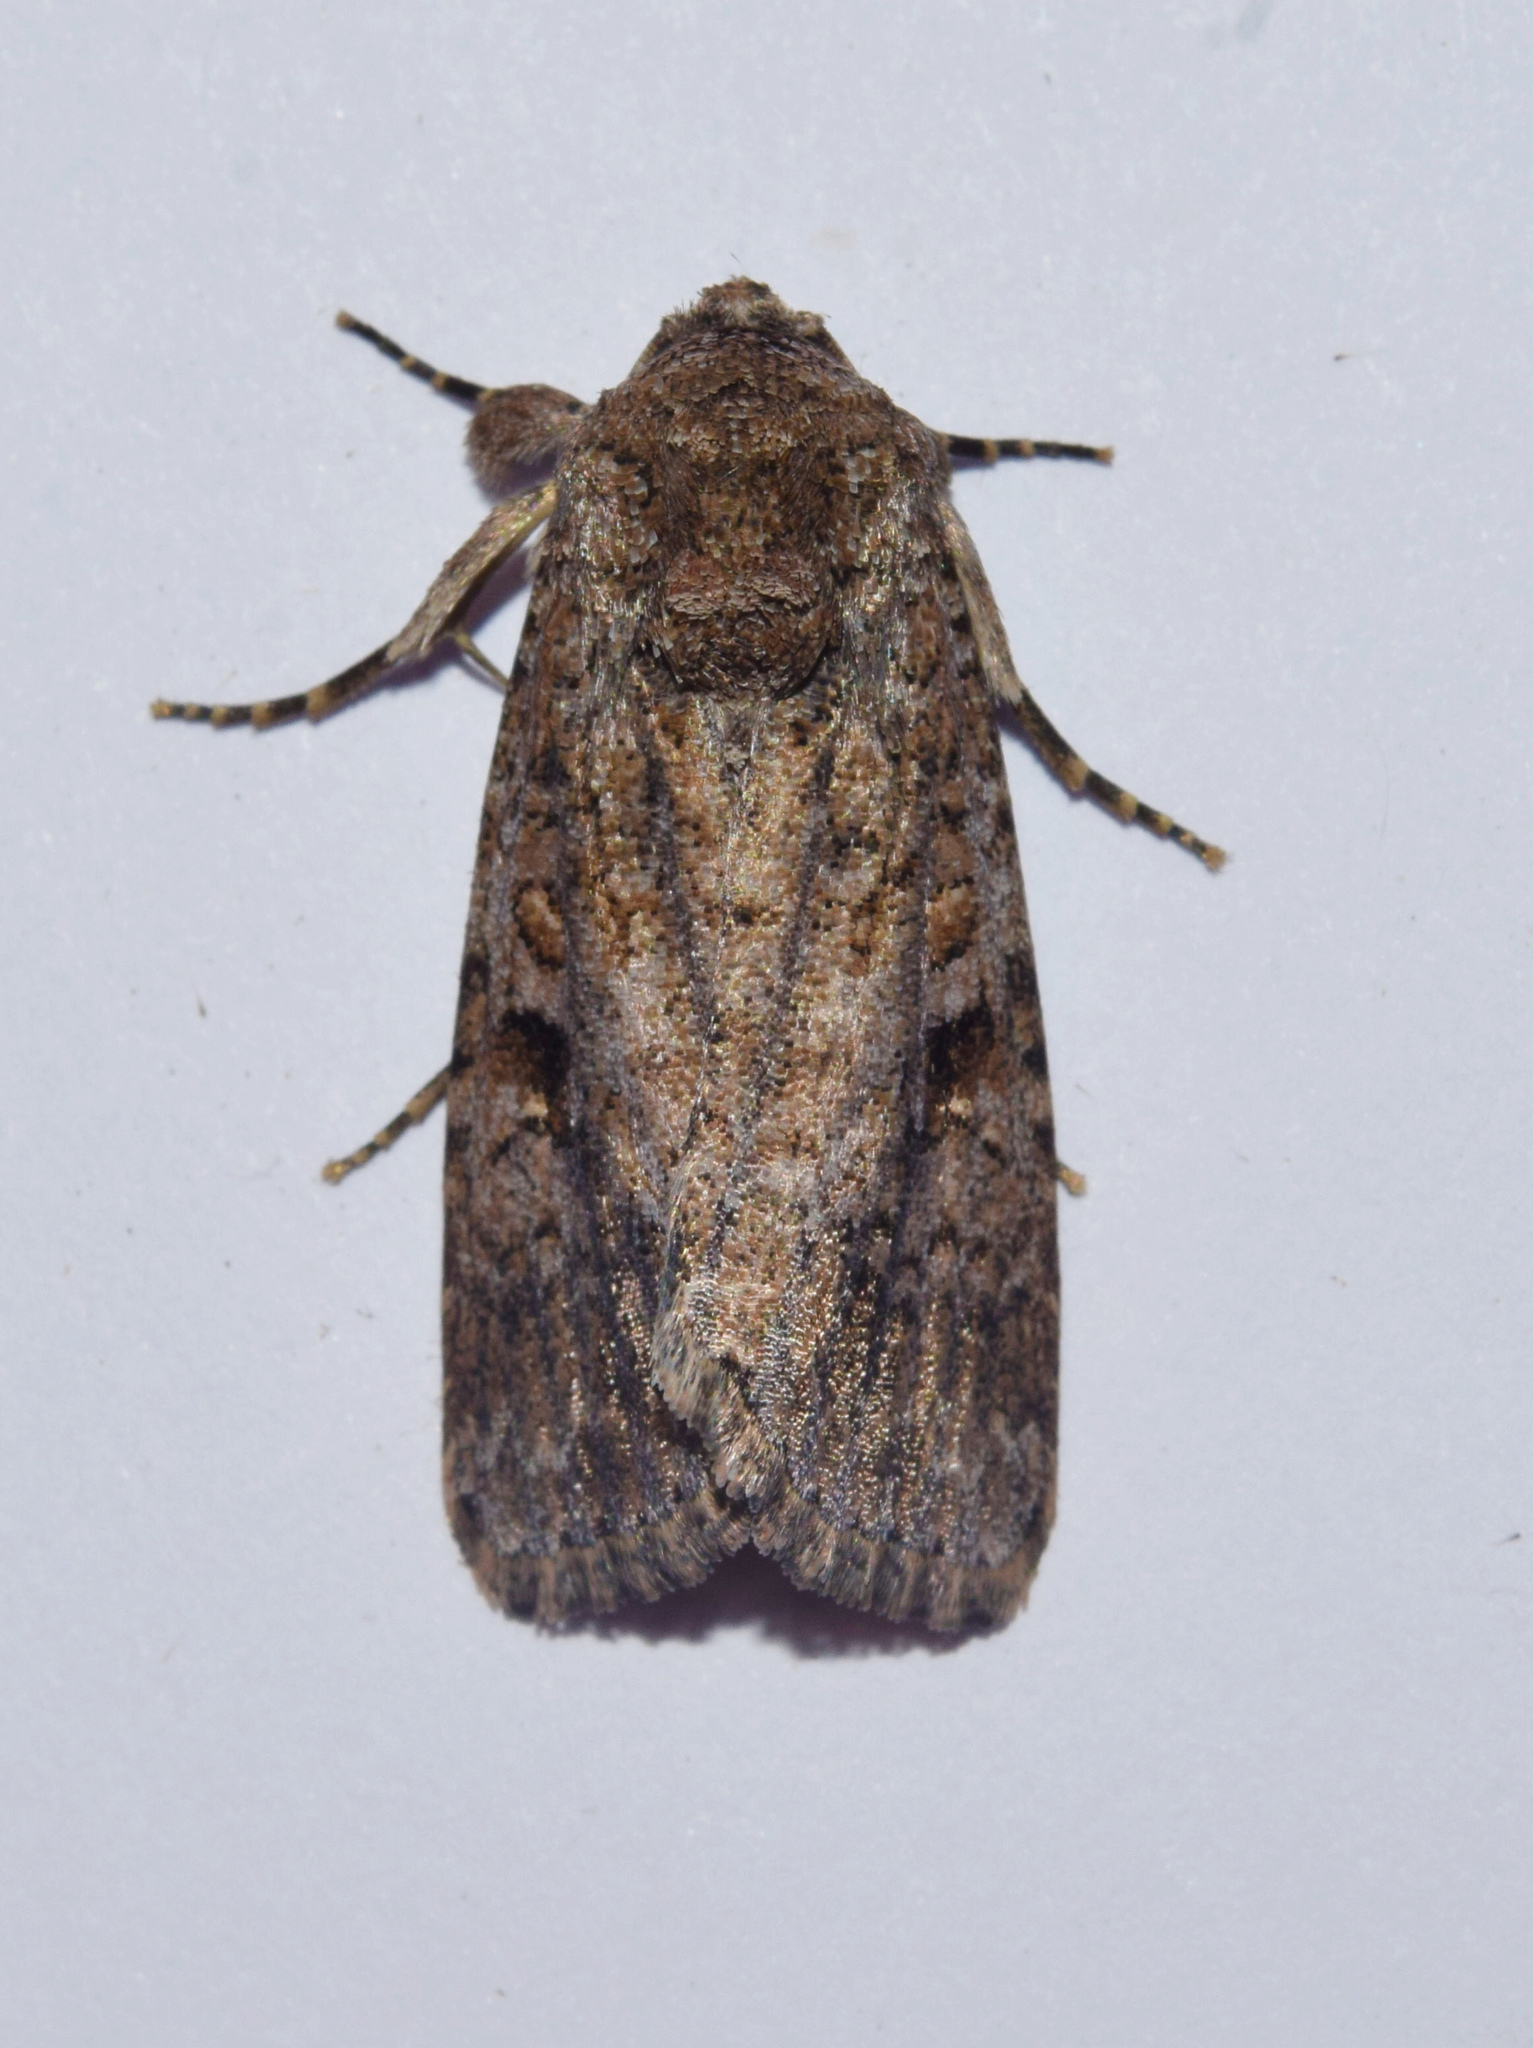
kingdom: Animalia
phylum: Arthropoda
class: Insecta
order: Lepidoptera
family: Noctuidae
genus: Spodoptera
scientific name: Spodoptera cilium
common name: Dark mottled willow
